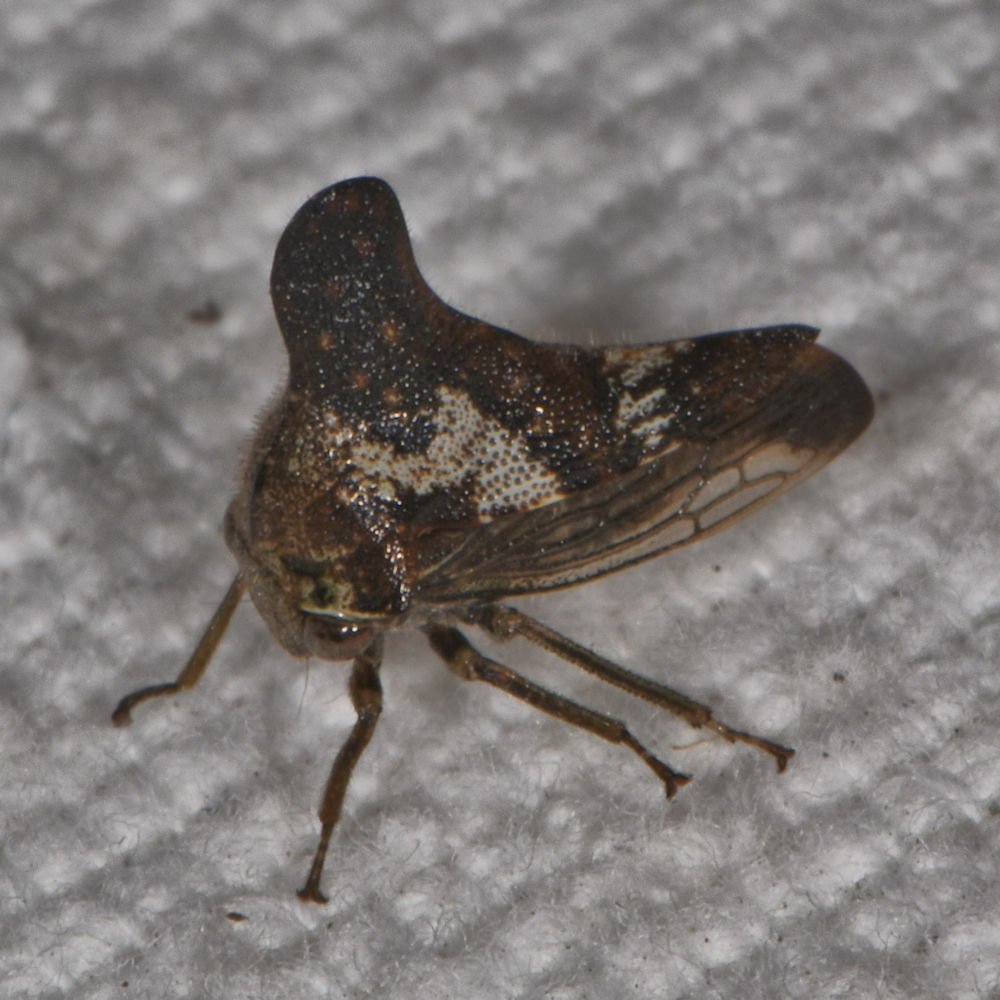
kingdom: Animalia
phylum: Arthropoda
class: Insecta
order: Hemiptera
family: Membracidae
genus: Glossonotus
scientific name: Glossonotus crataegi
